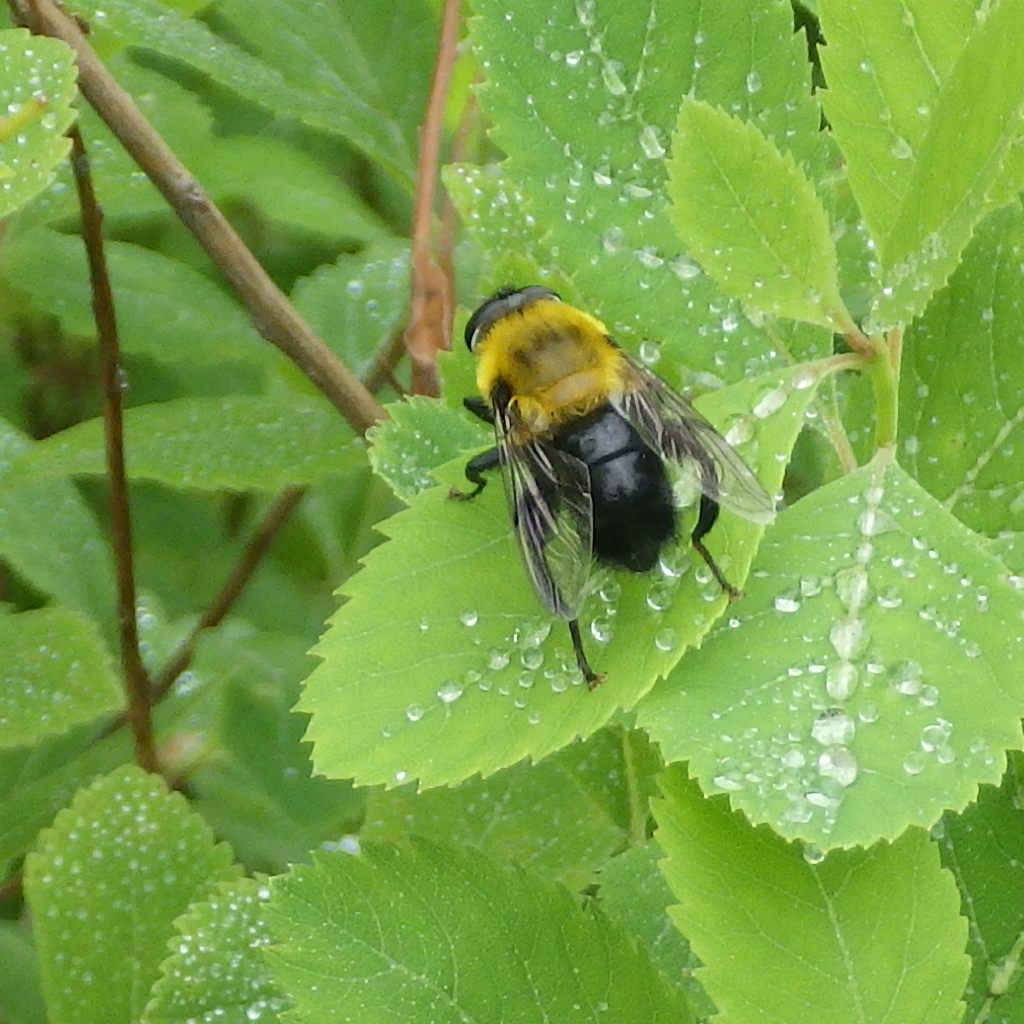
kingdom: Animalia
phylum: Arthropoda
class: Insecta
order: Diptera
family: Syrphidae
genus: Imatisma
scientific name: Imatisma bautias
